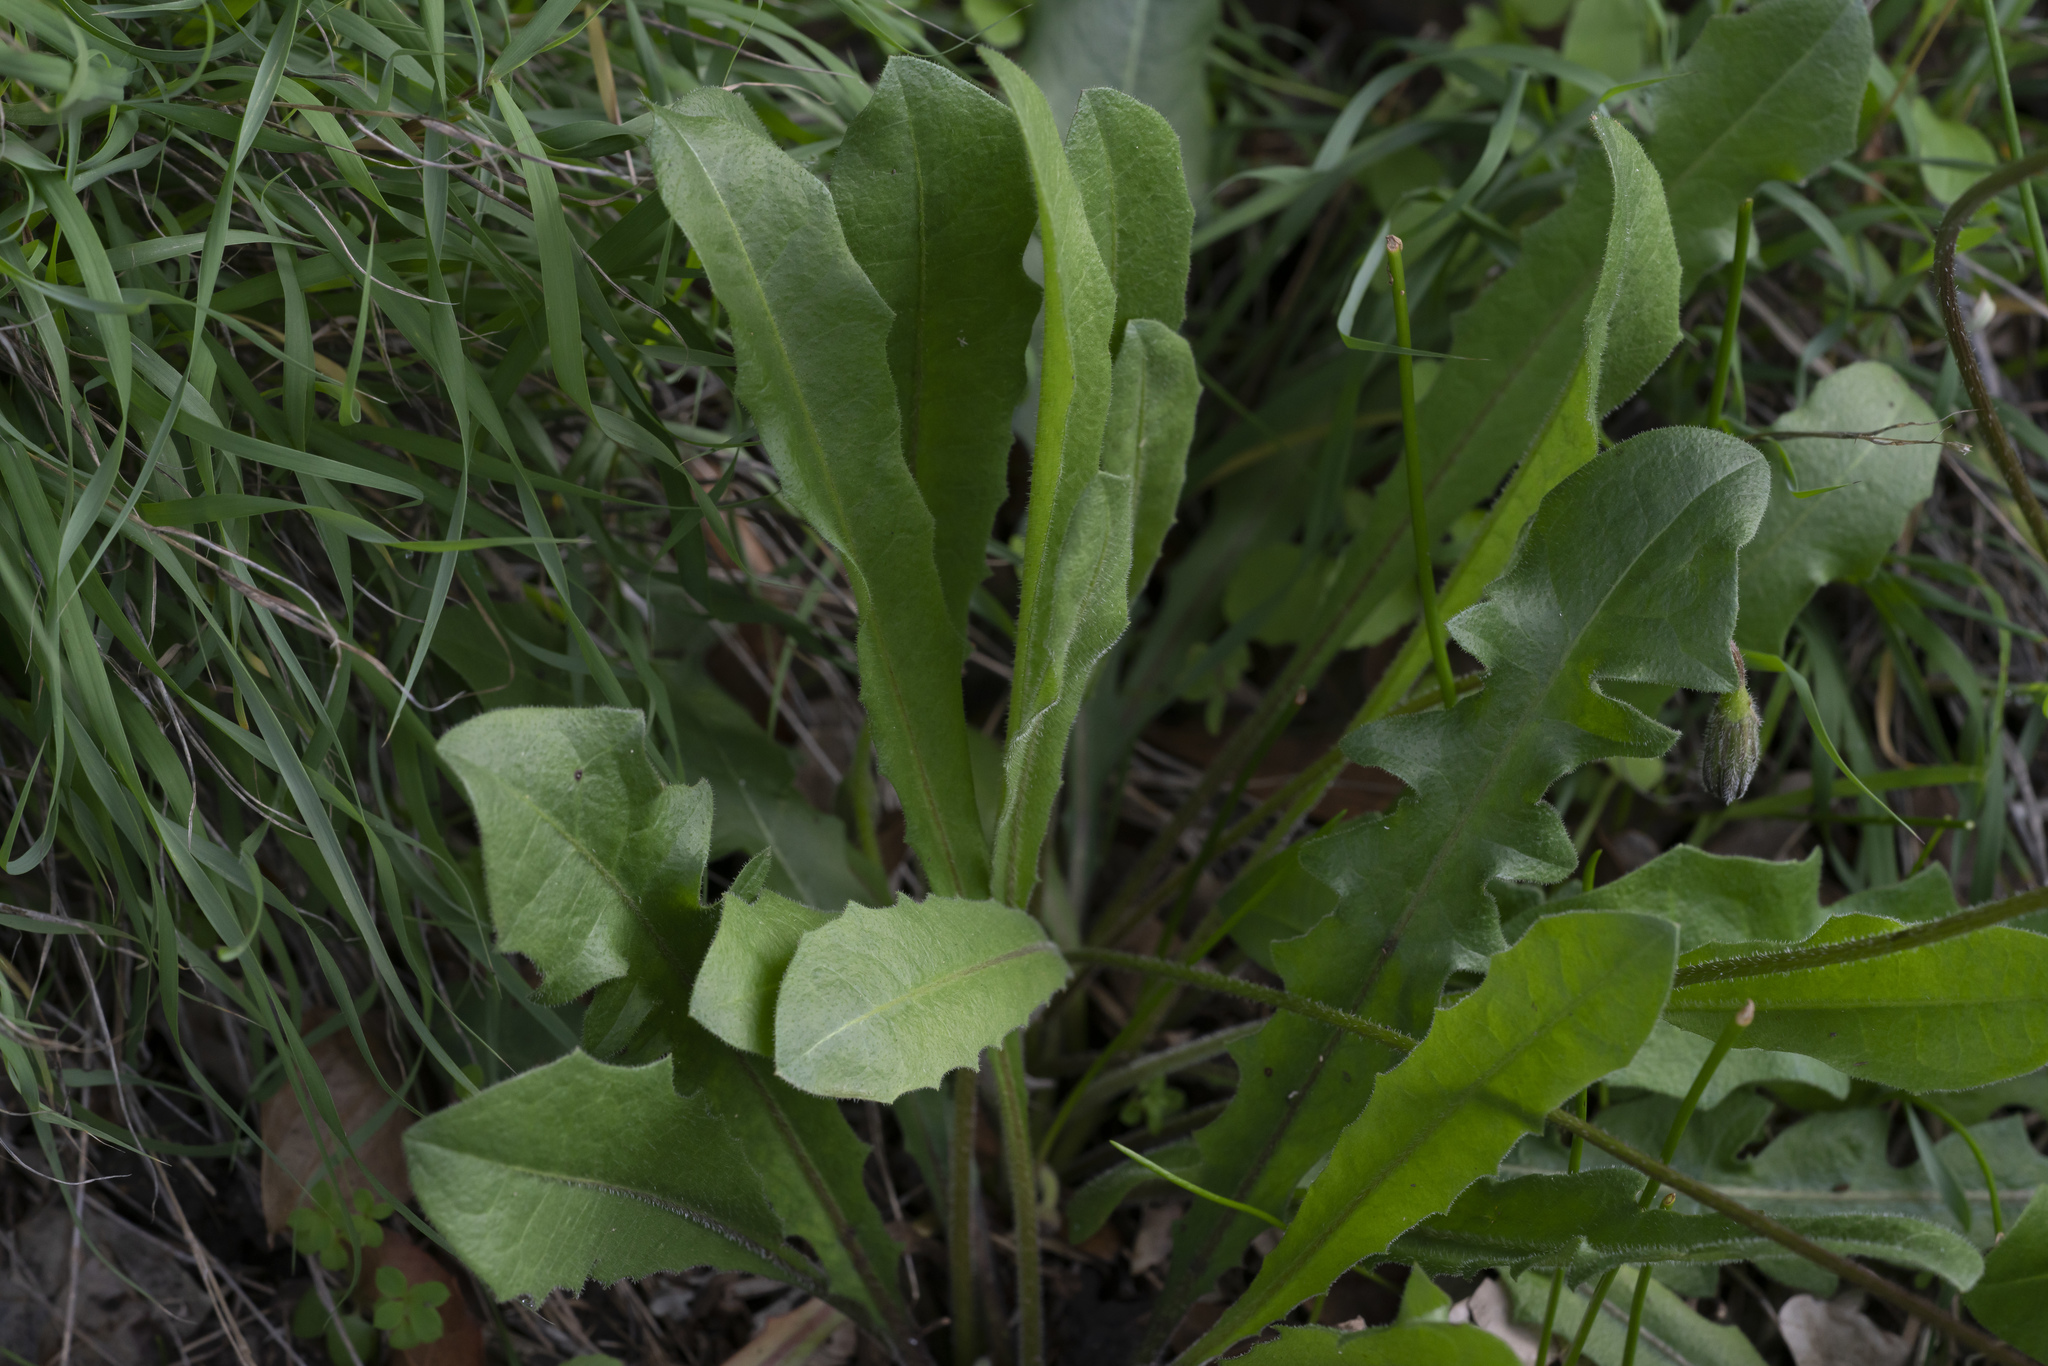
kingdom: Plantae
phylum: Tracheophyta
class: Magnoliopsida
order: Asterales
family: Asteraceae
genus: Leontodon
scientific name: Leontodon tuberosus
